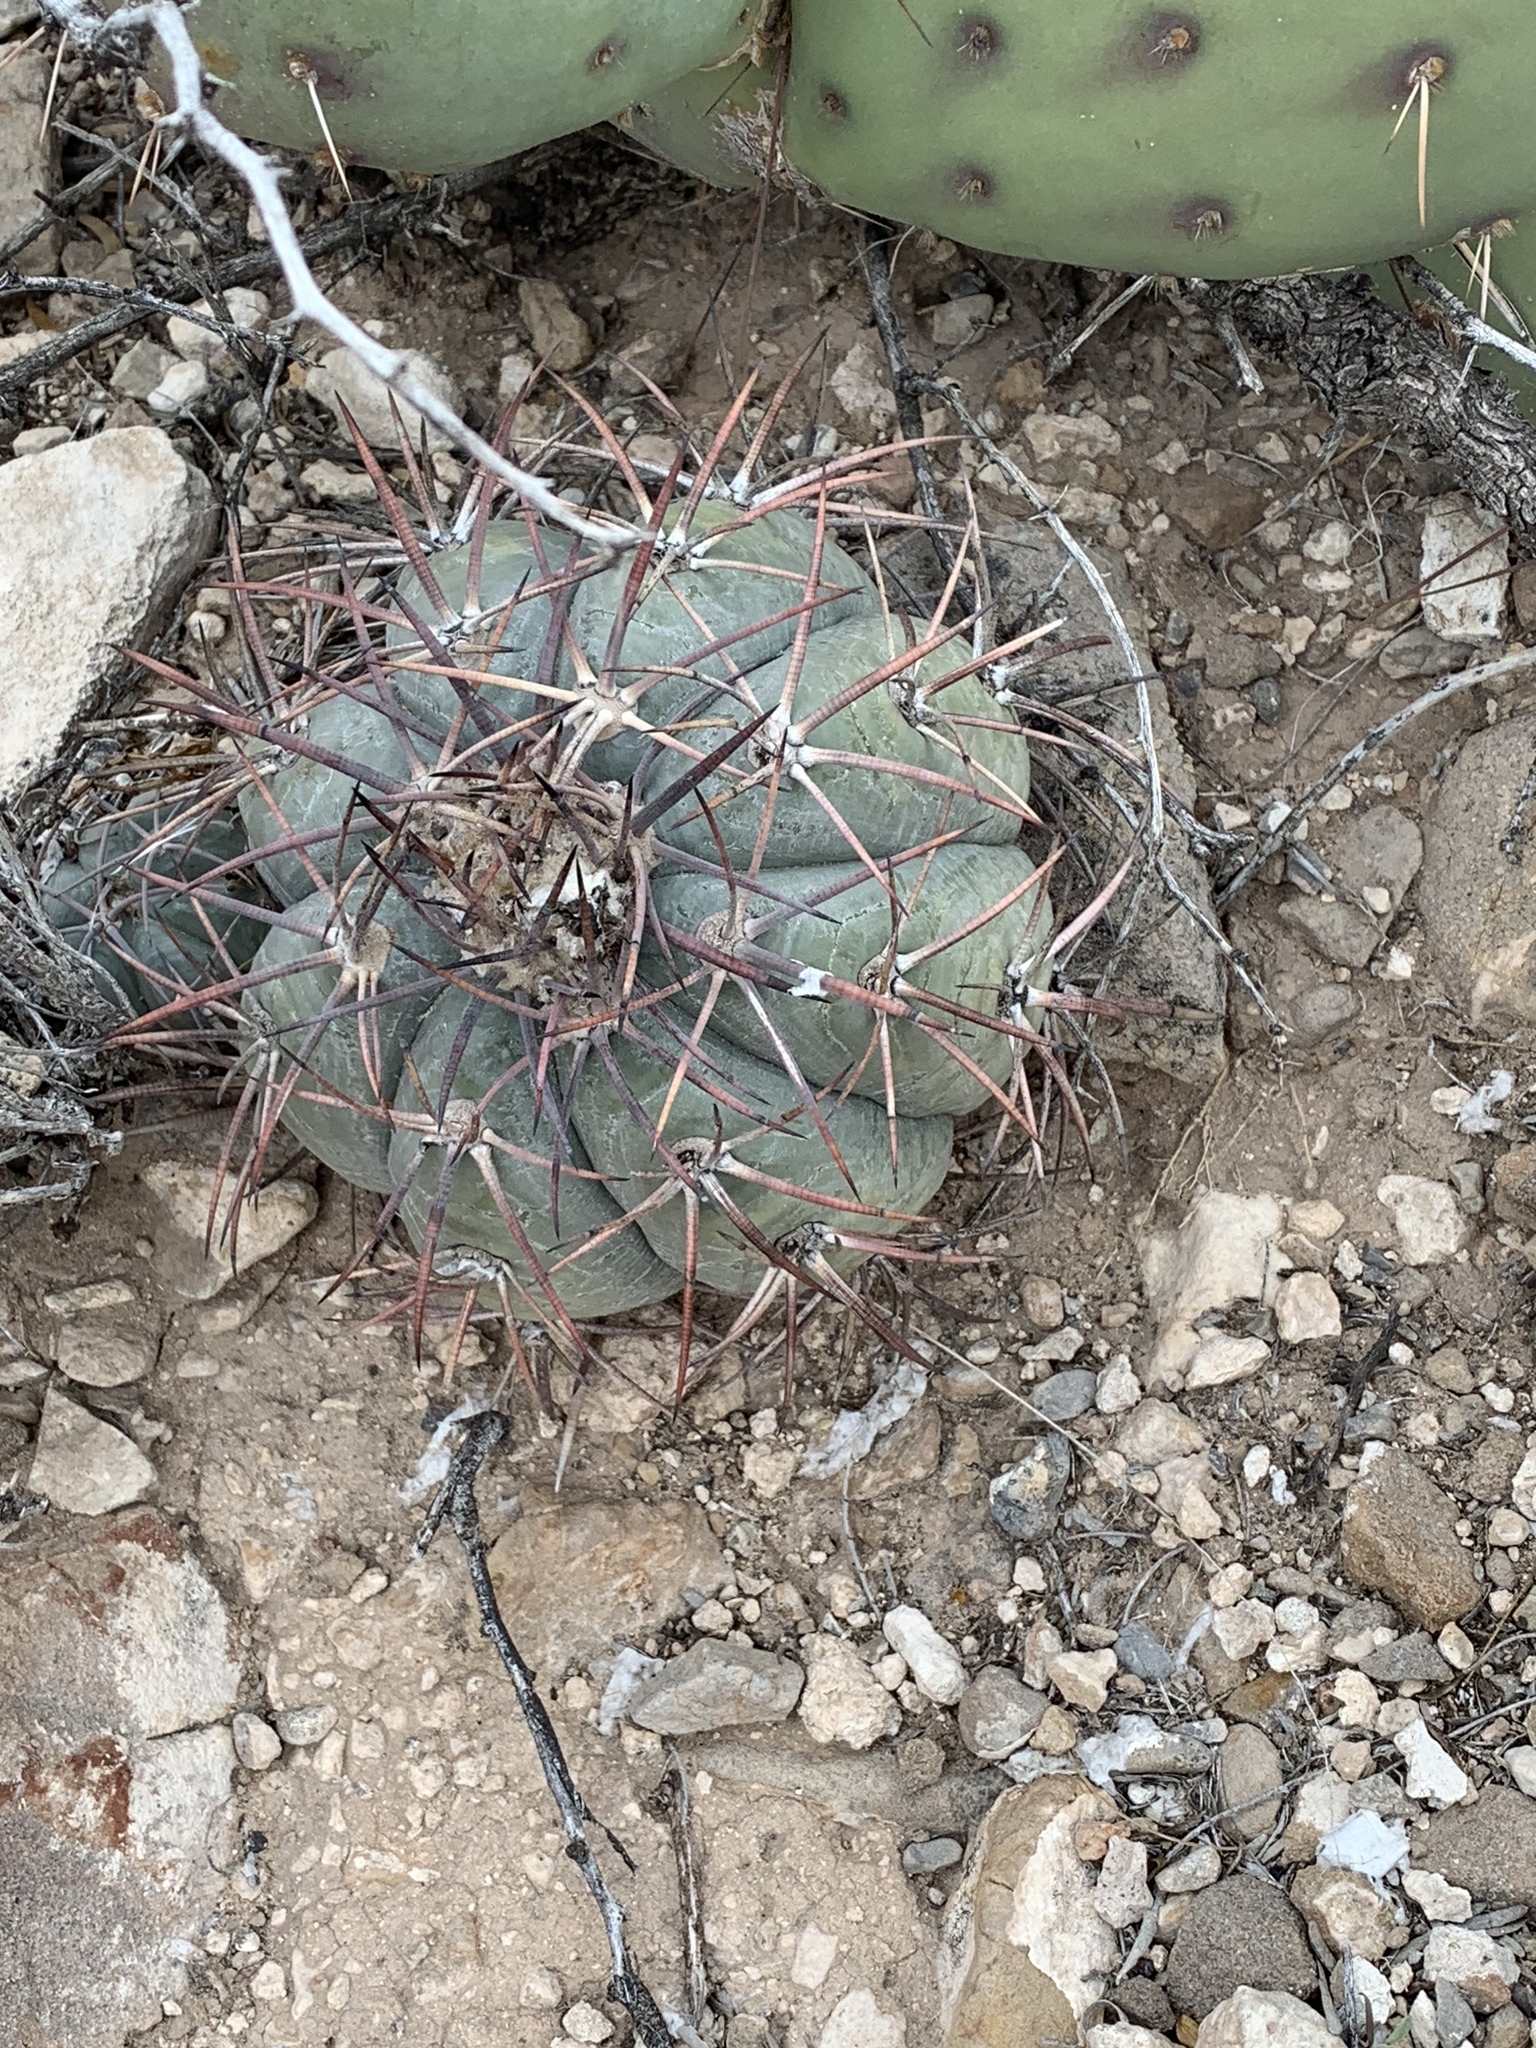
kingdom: Plantae
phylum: Tracheophyta
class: Magnoliopsida
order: Caryophyllales
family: Cactaceae
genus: Echinocactus
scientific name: Echinocactus horizonthalonius
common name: Devilshead
